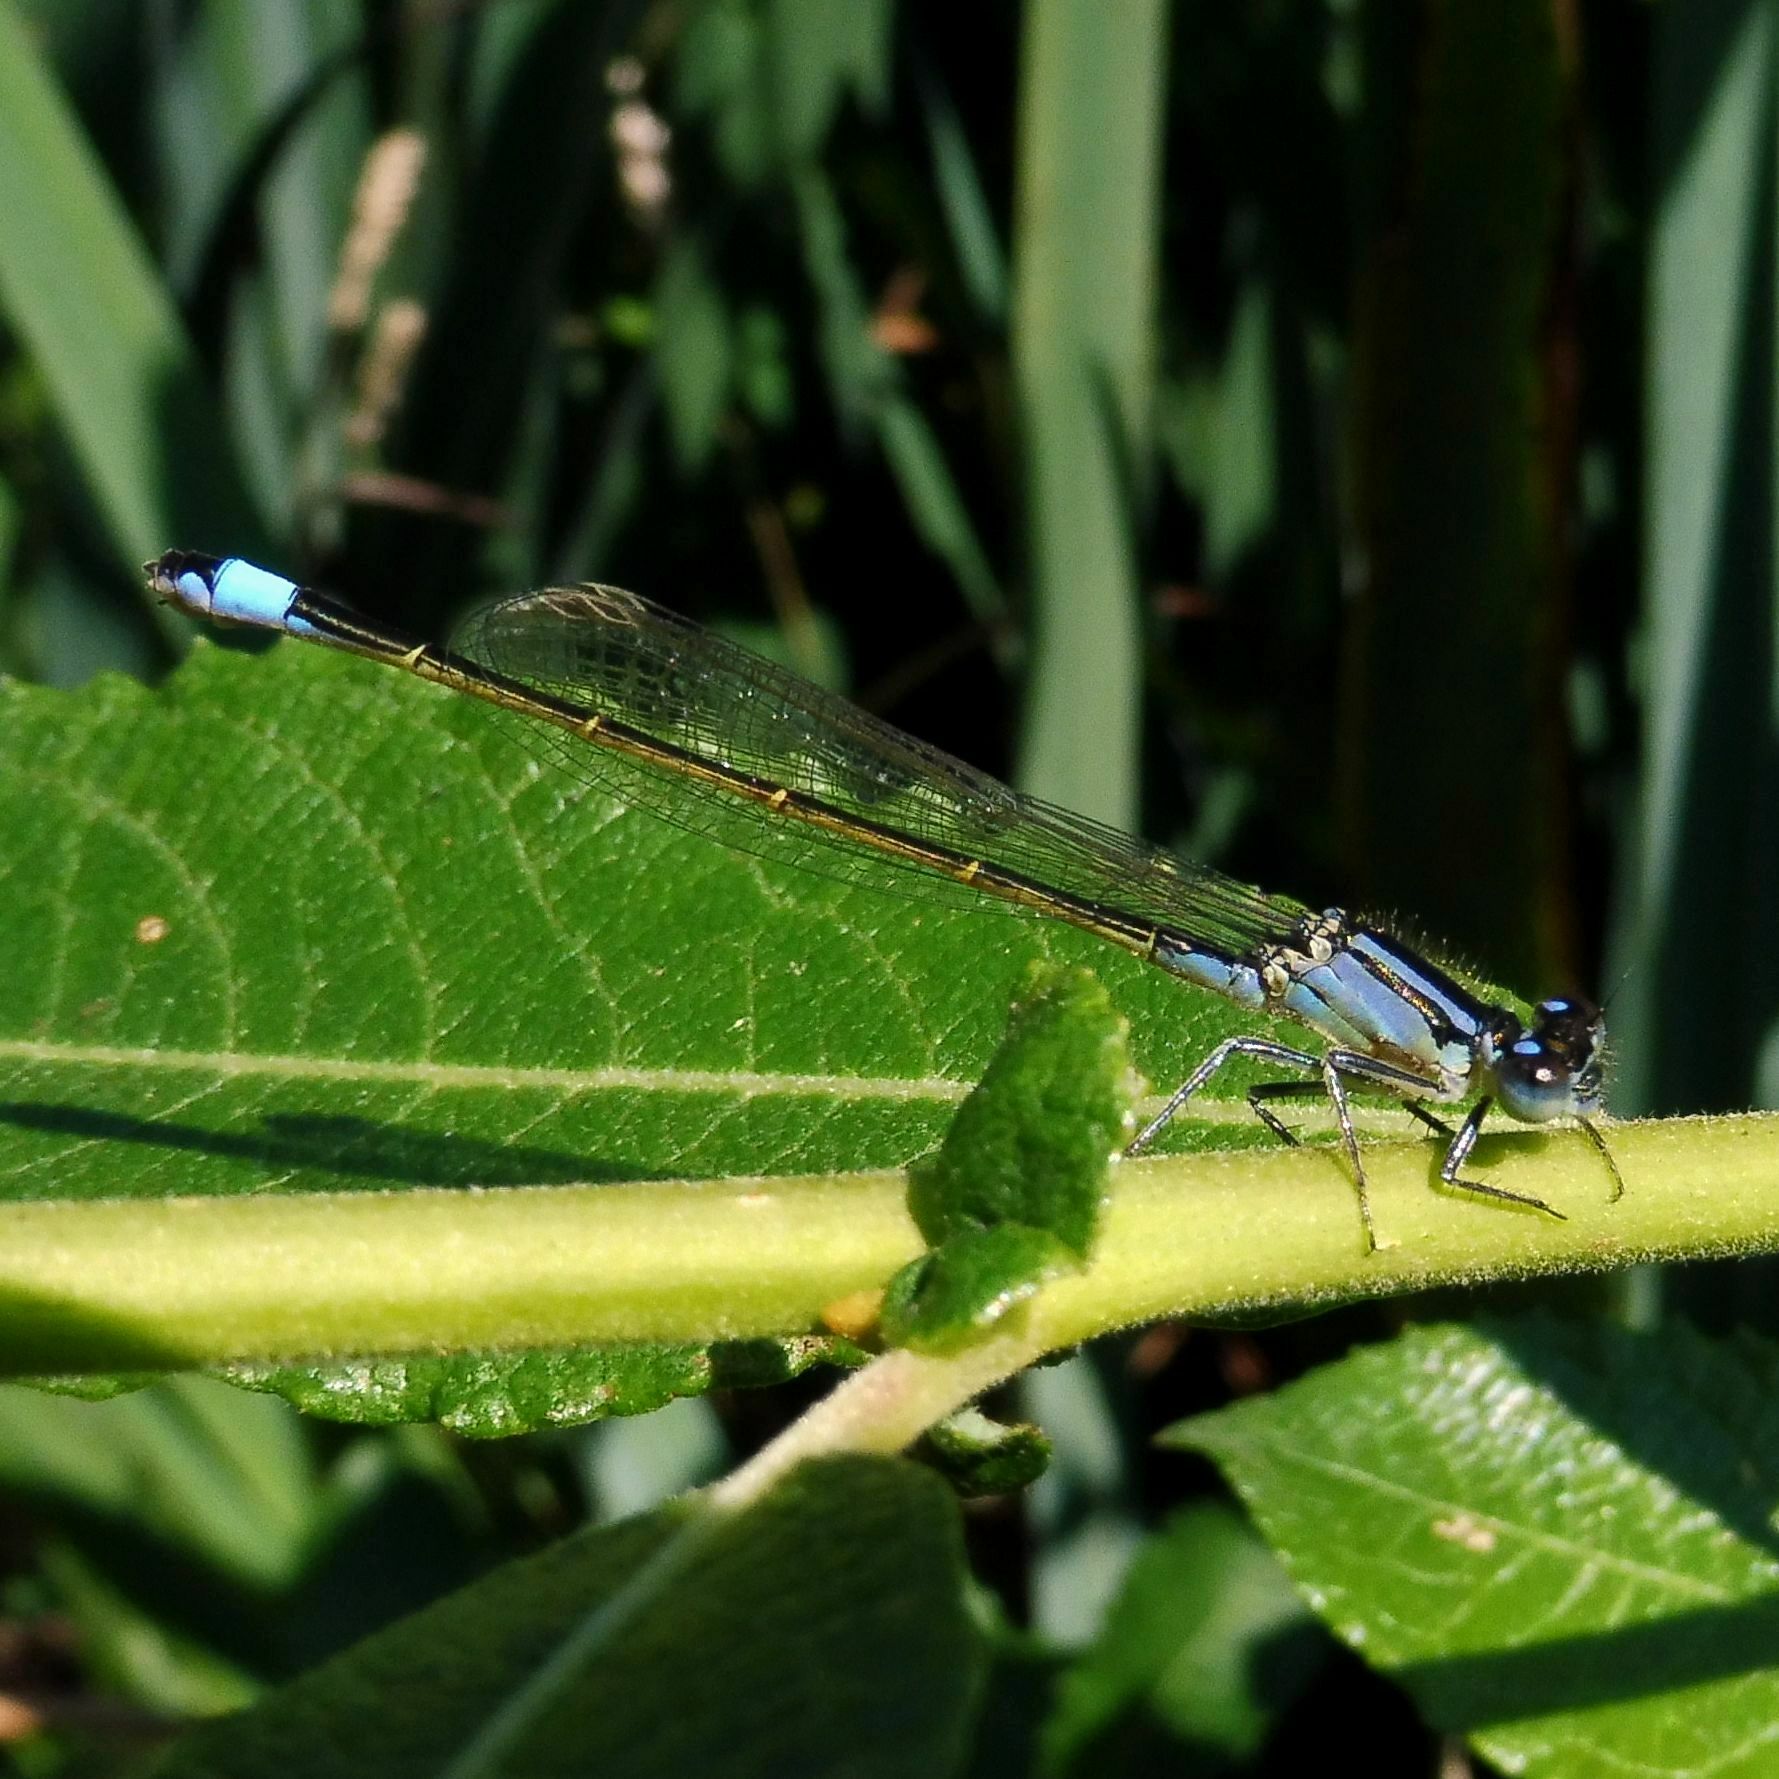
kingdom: Animalia
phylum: Arthropoda
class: Insecta
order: Odonata
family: Coenagrionidae
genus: Ischnura
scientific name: Ischnura elegans
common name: Blue-tailed damselfly
